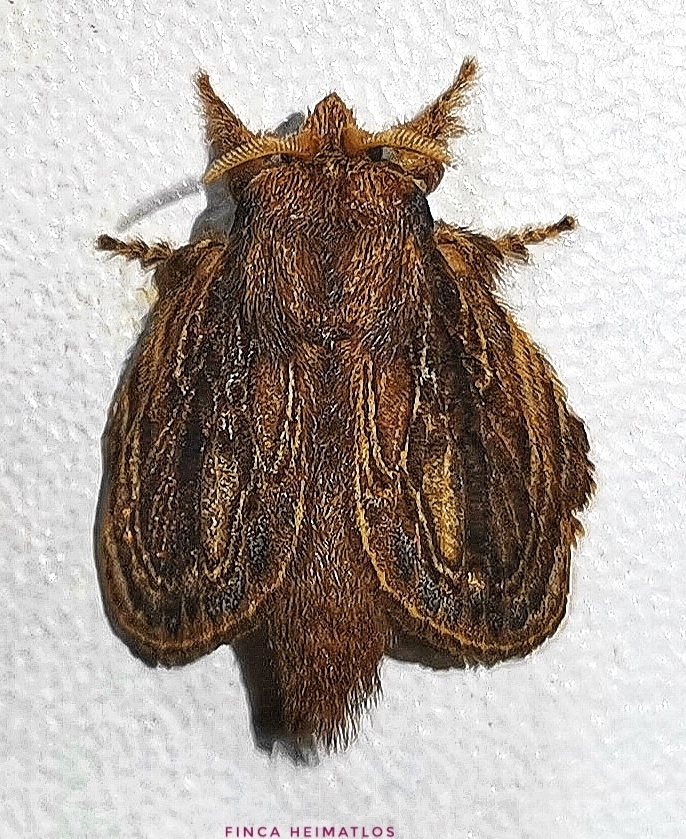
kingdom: Animalia
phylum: Arthropoda
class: Insecta
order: Lepidoptera
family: Lasiocampidae
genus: Euglyphis
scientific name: Euglyphis libnites
